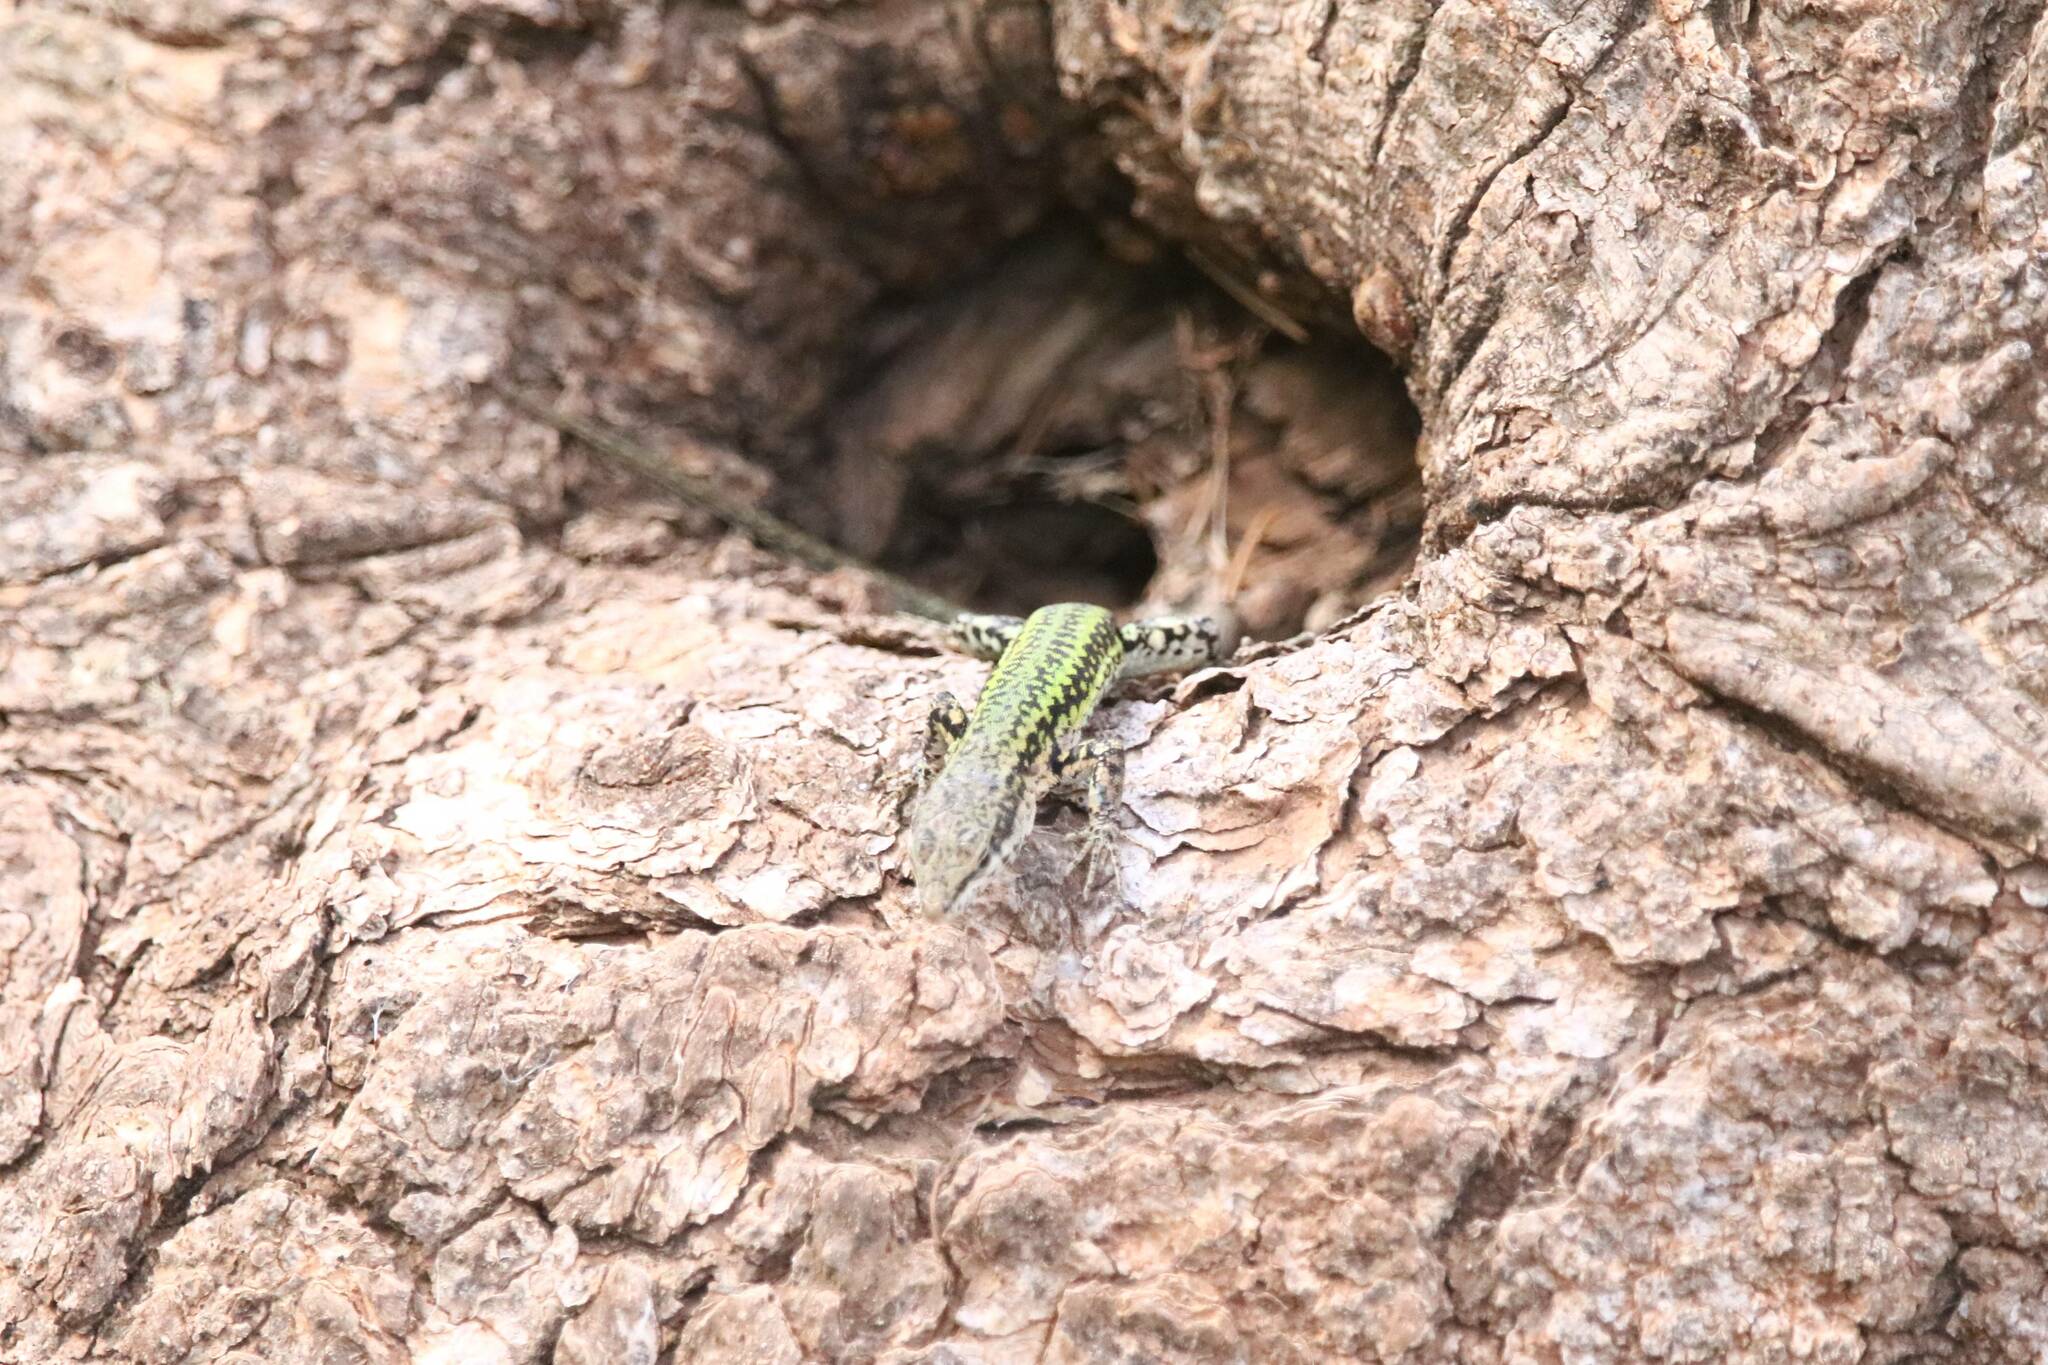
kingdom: Animalia
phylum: Chordata
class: Squamata
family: Lacertidae
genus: Podarcis
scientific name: Podarcis vaucheri
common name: Vaucher's wall lizard
